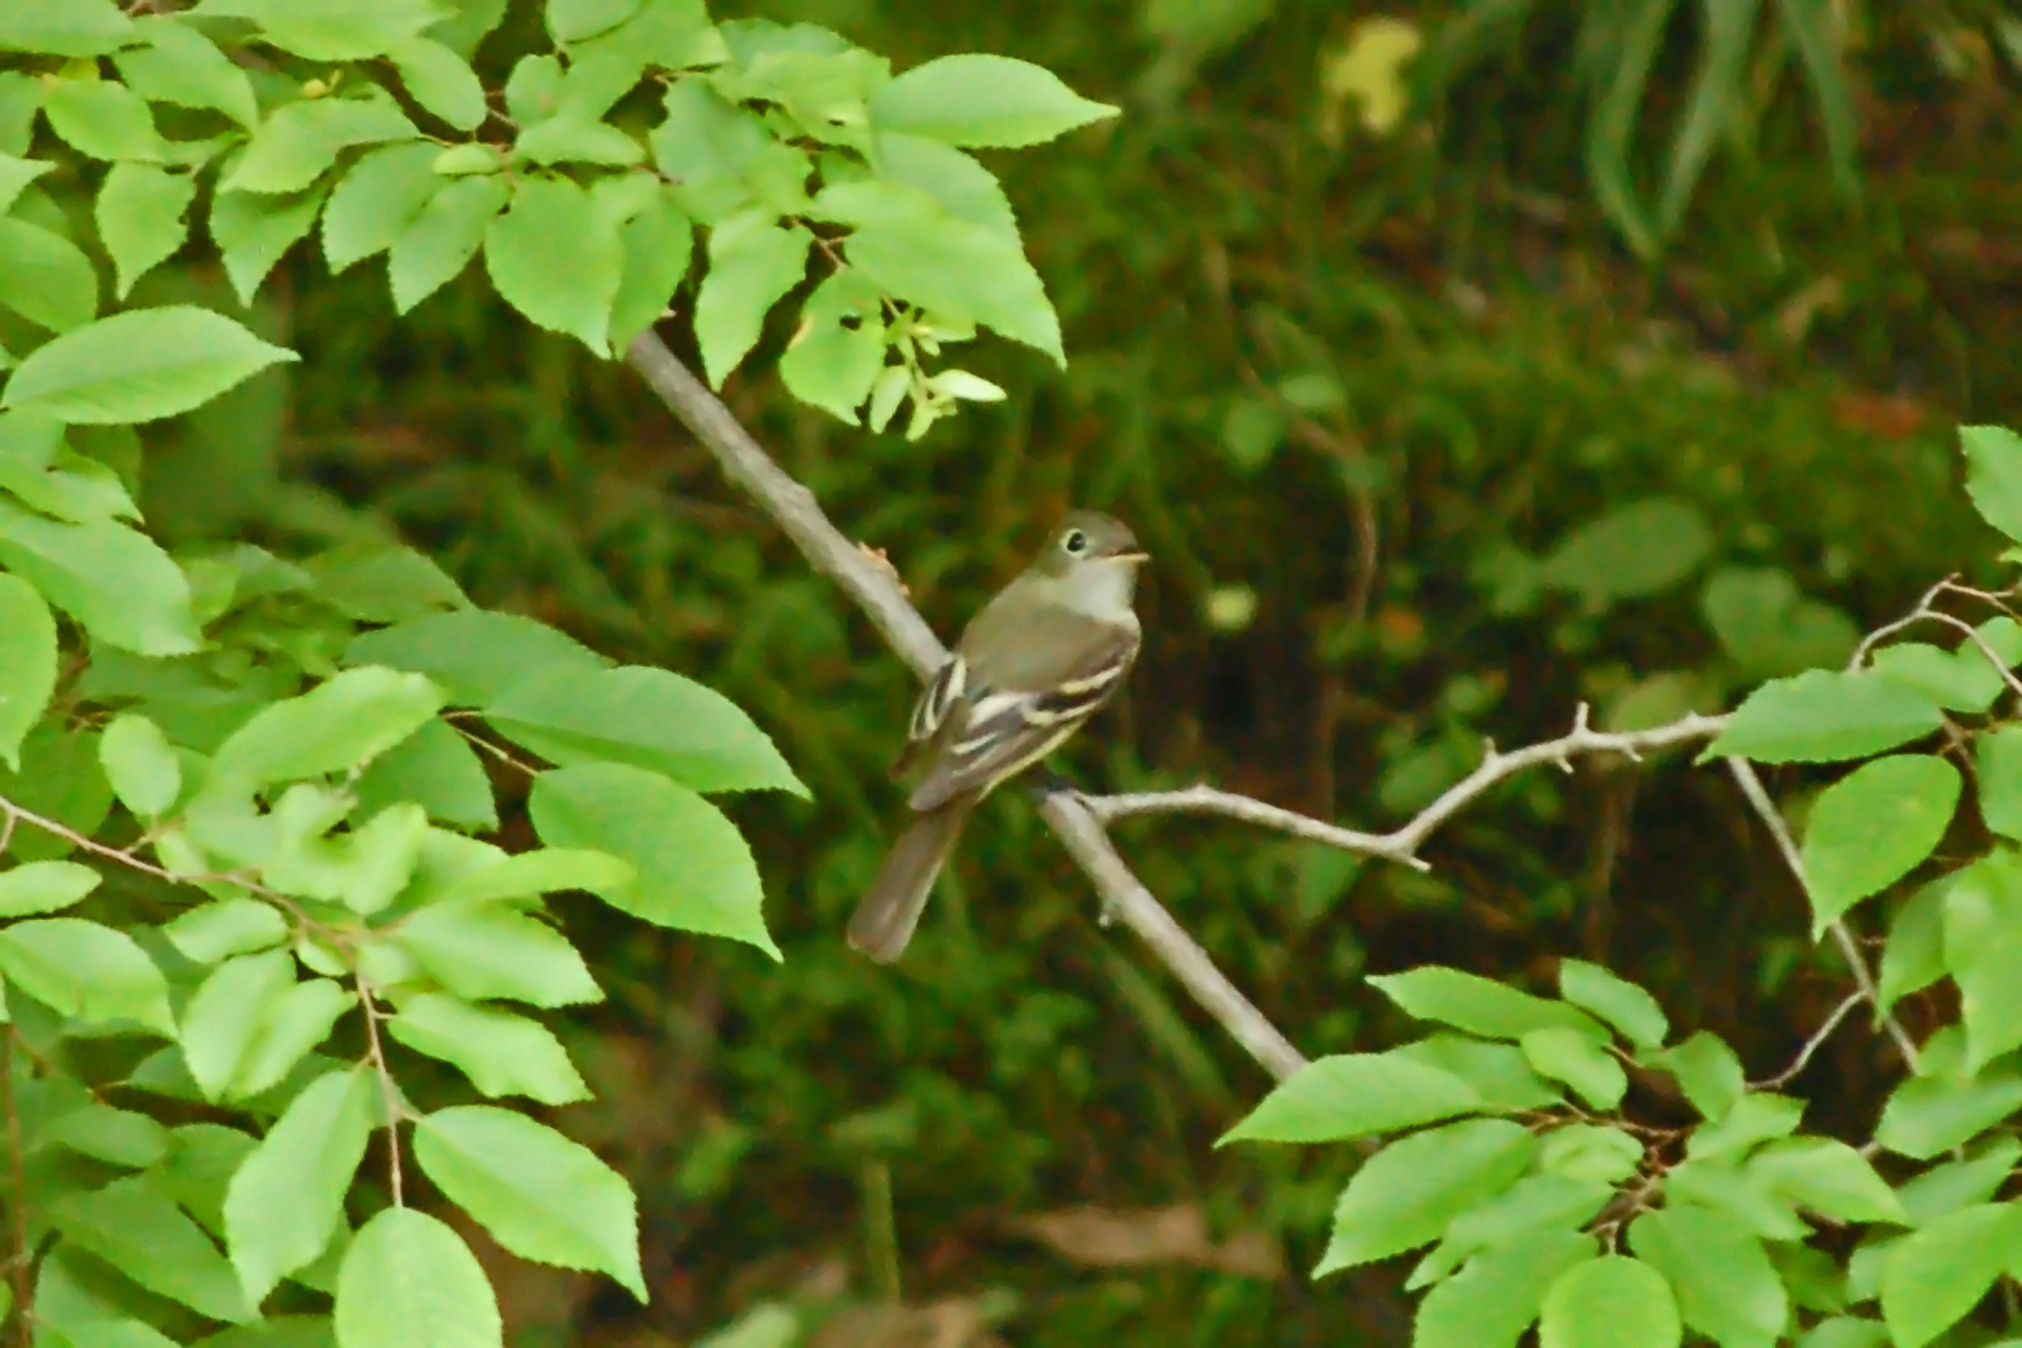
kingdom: Animalia
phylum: Chordata
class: Aves
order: Passeriformes
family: Tyrannidae
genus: Empidonax
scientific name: Empidonax virescens
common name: Acadian flycatcher
